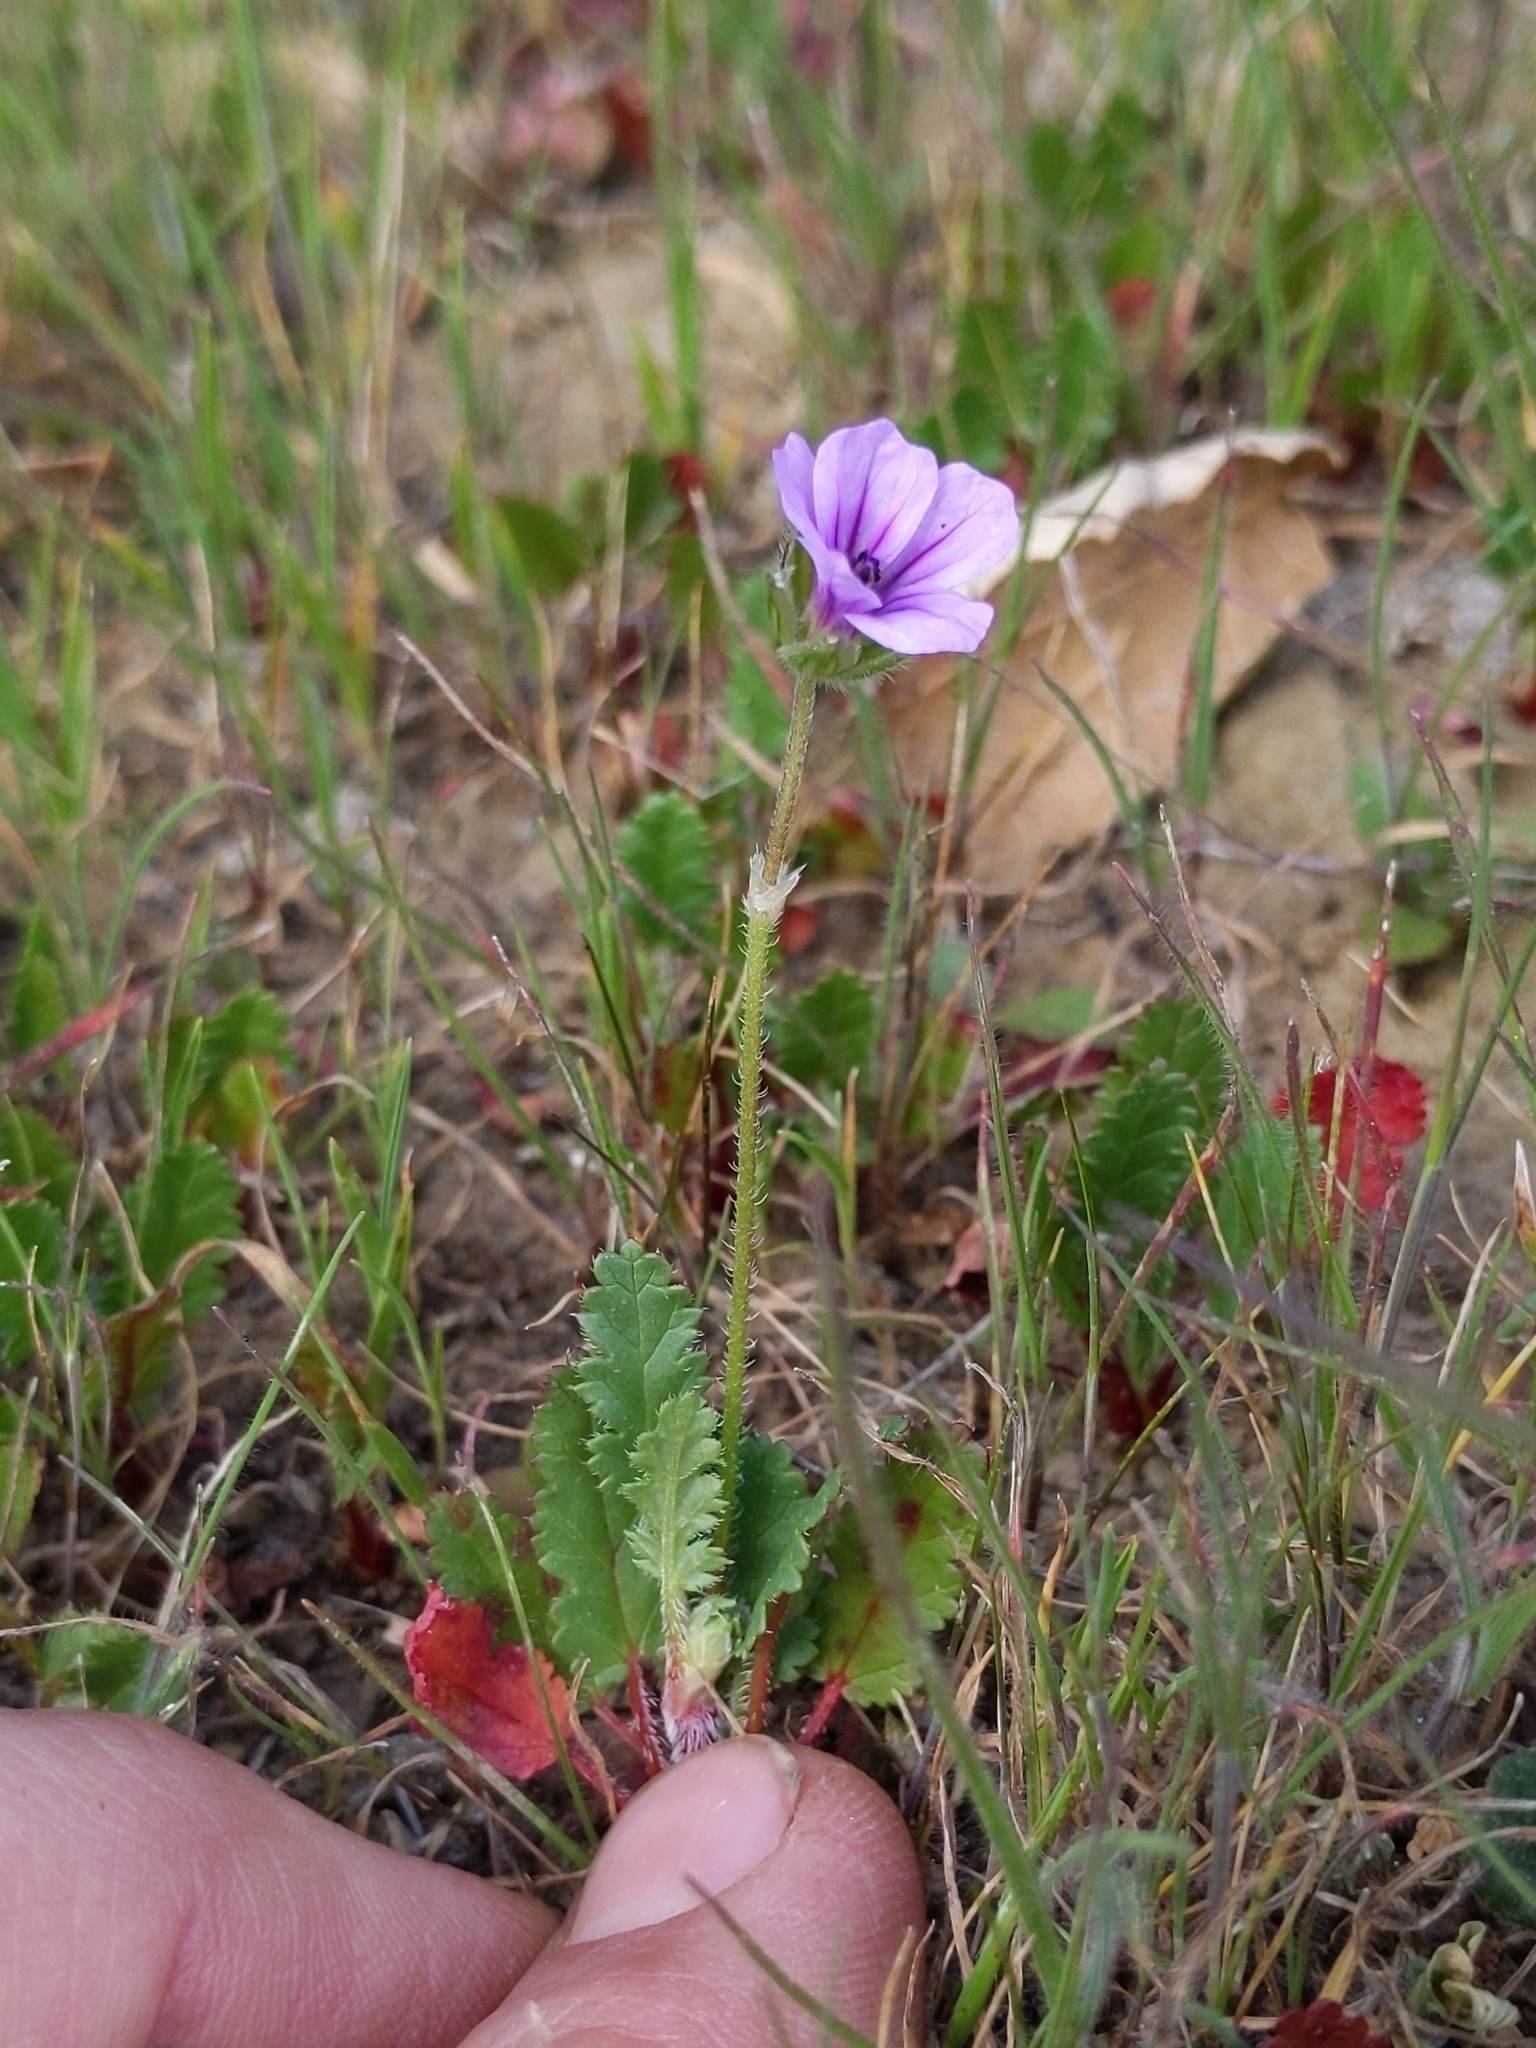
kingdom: Plantae
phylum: Tracheophyta
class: Magnoliopsida
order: Geraniales
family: Geraniaceae
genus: Erodium
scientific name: Erodium botrys
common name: Mediterranean stork's-bill
